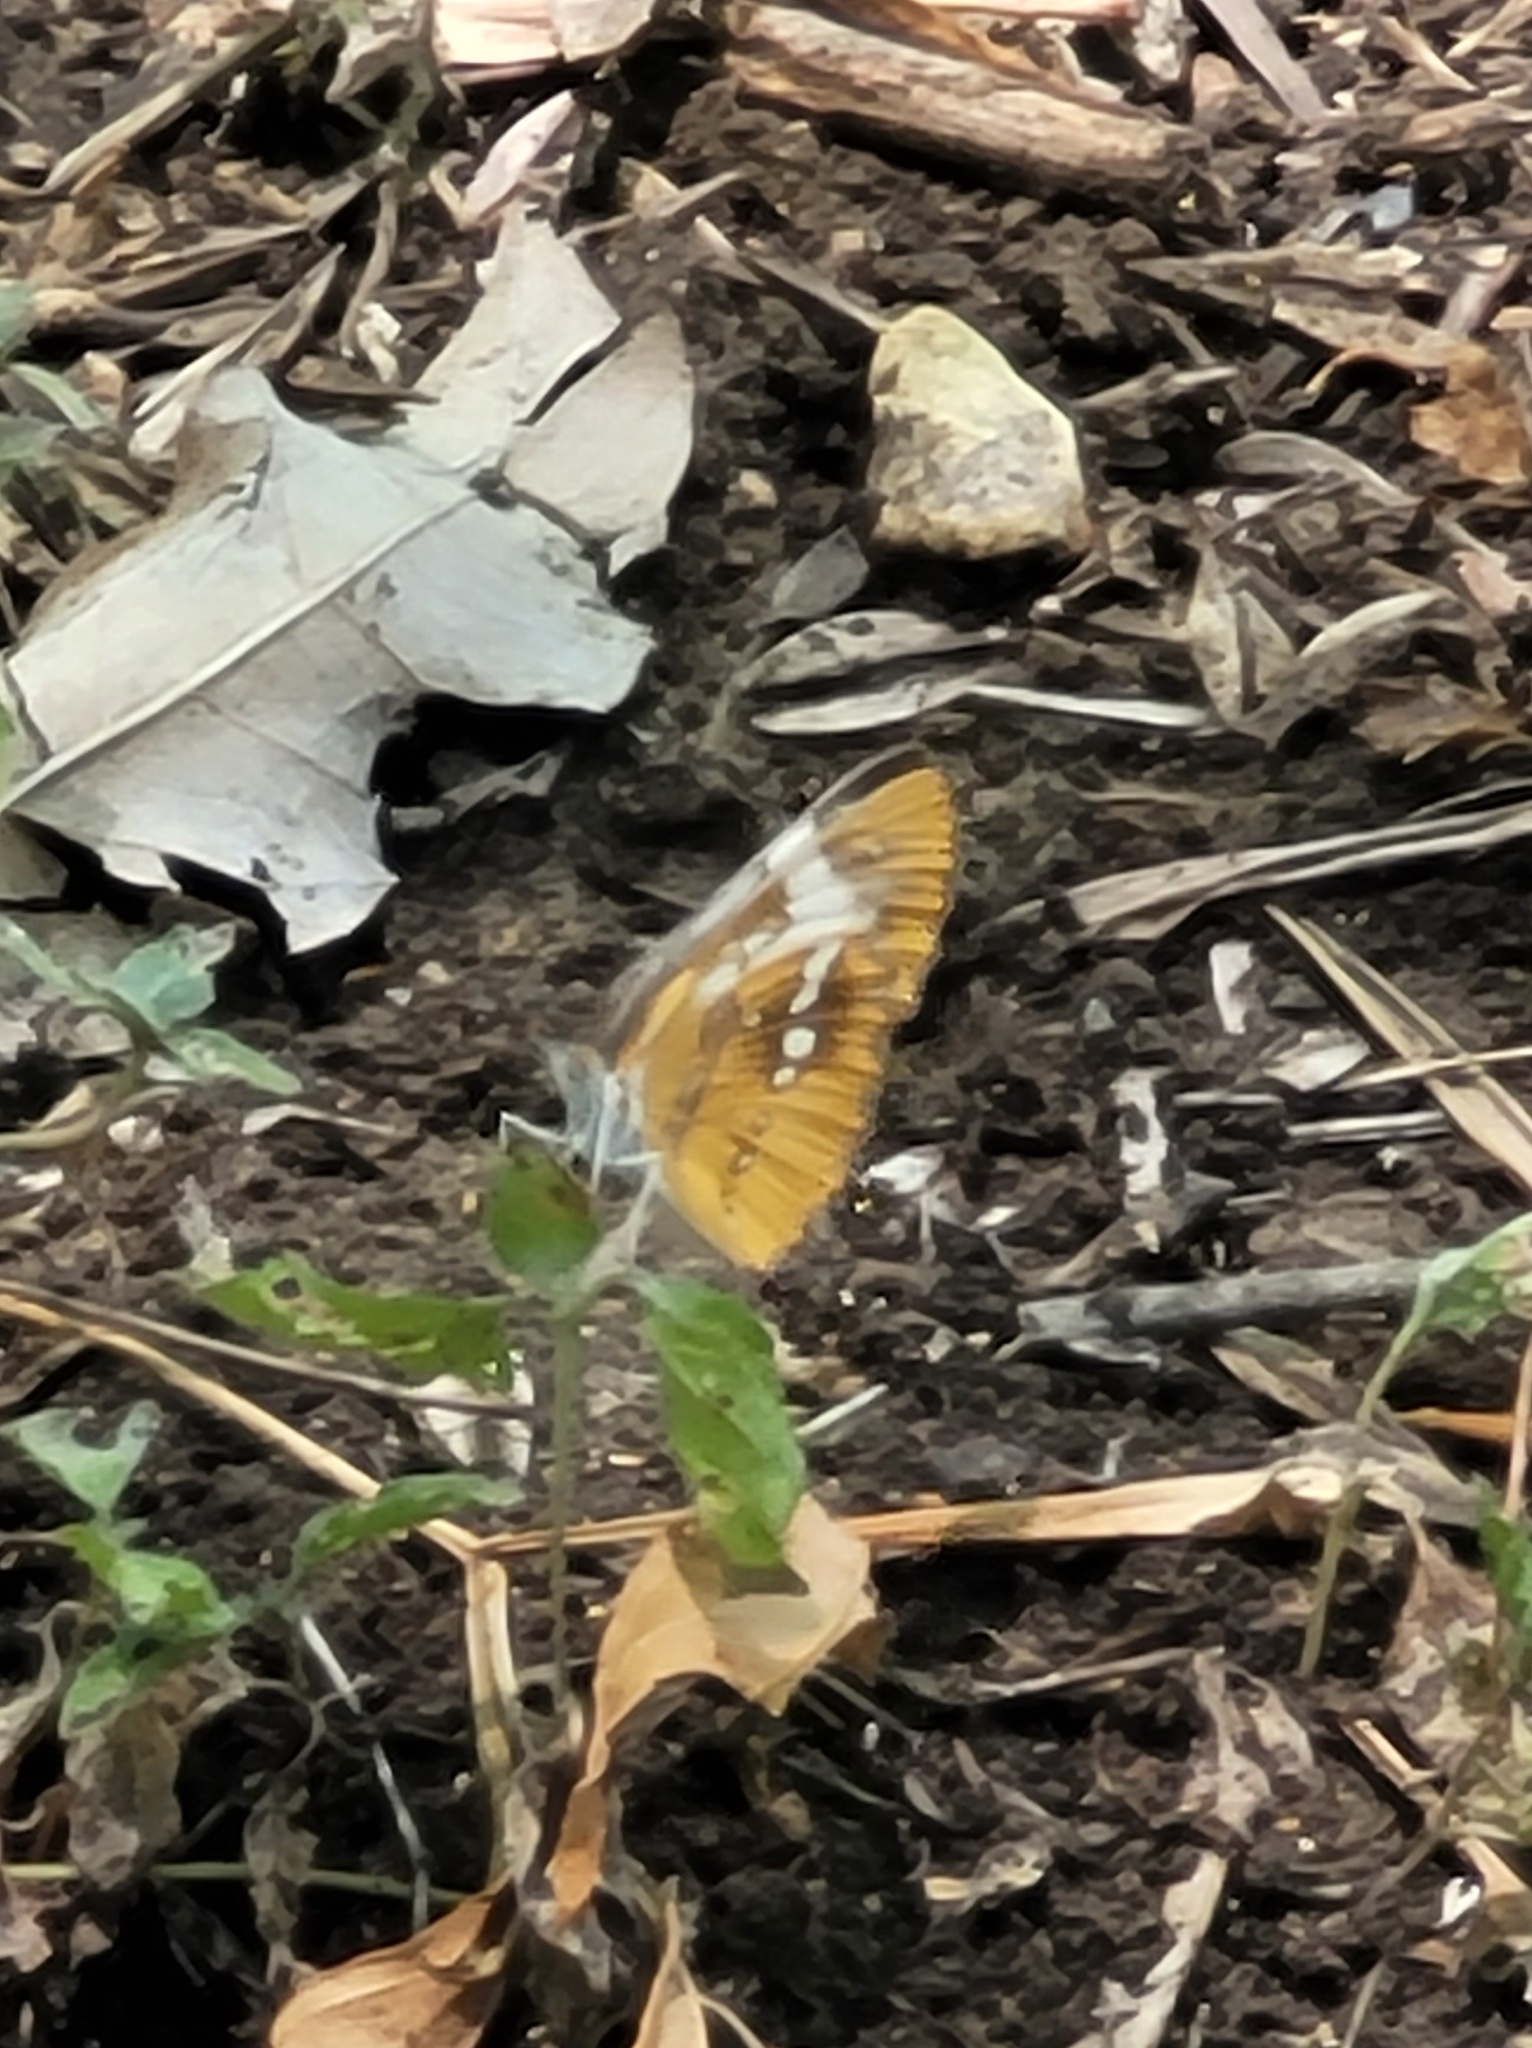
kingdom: Animalia
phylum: Arthropoda
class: Insecta
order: Lepidoptera
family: Nymphalidae
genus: Mestra
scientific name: Mestra amymone
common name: Common mestra
